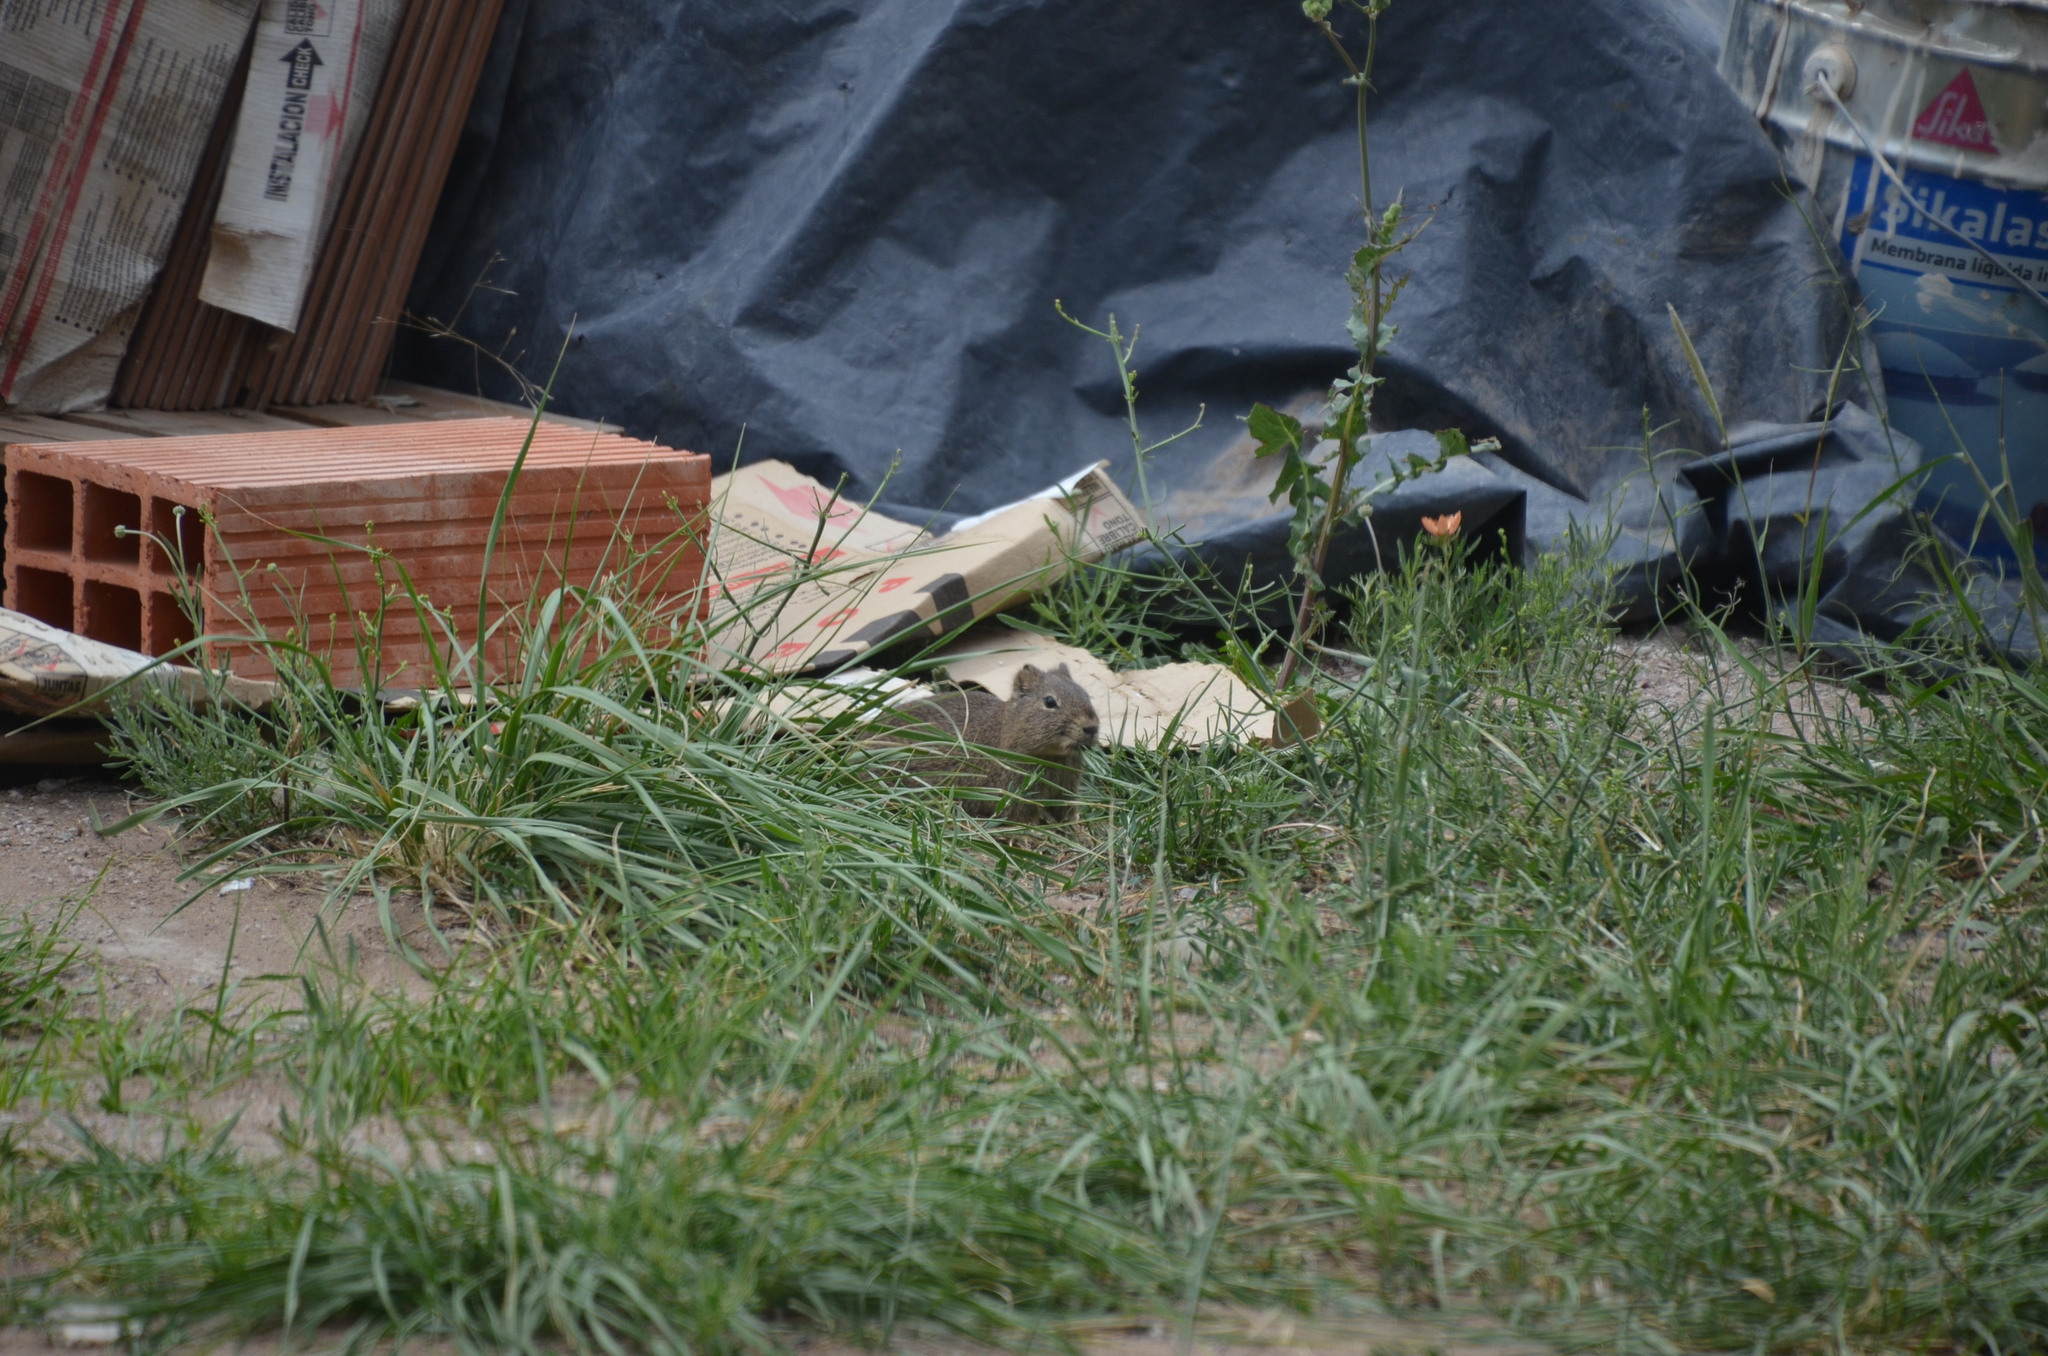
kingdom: Animalia
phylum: Chordata
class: Mammalia
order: Rodentia
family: Caviidae
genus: Cavia
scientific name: Cavia aperea
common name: Brazilian guinea pig
